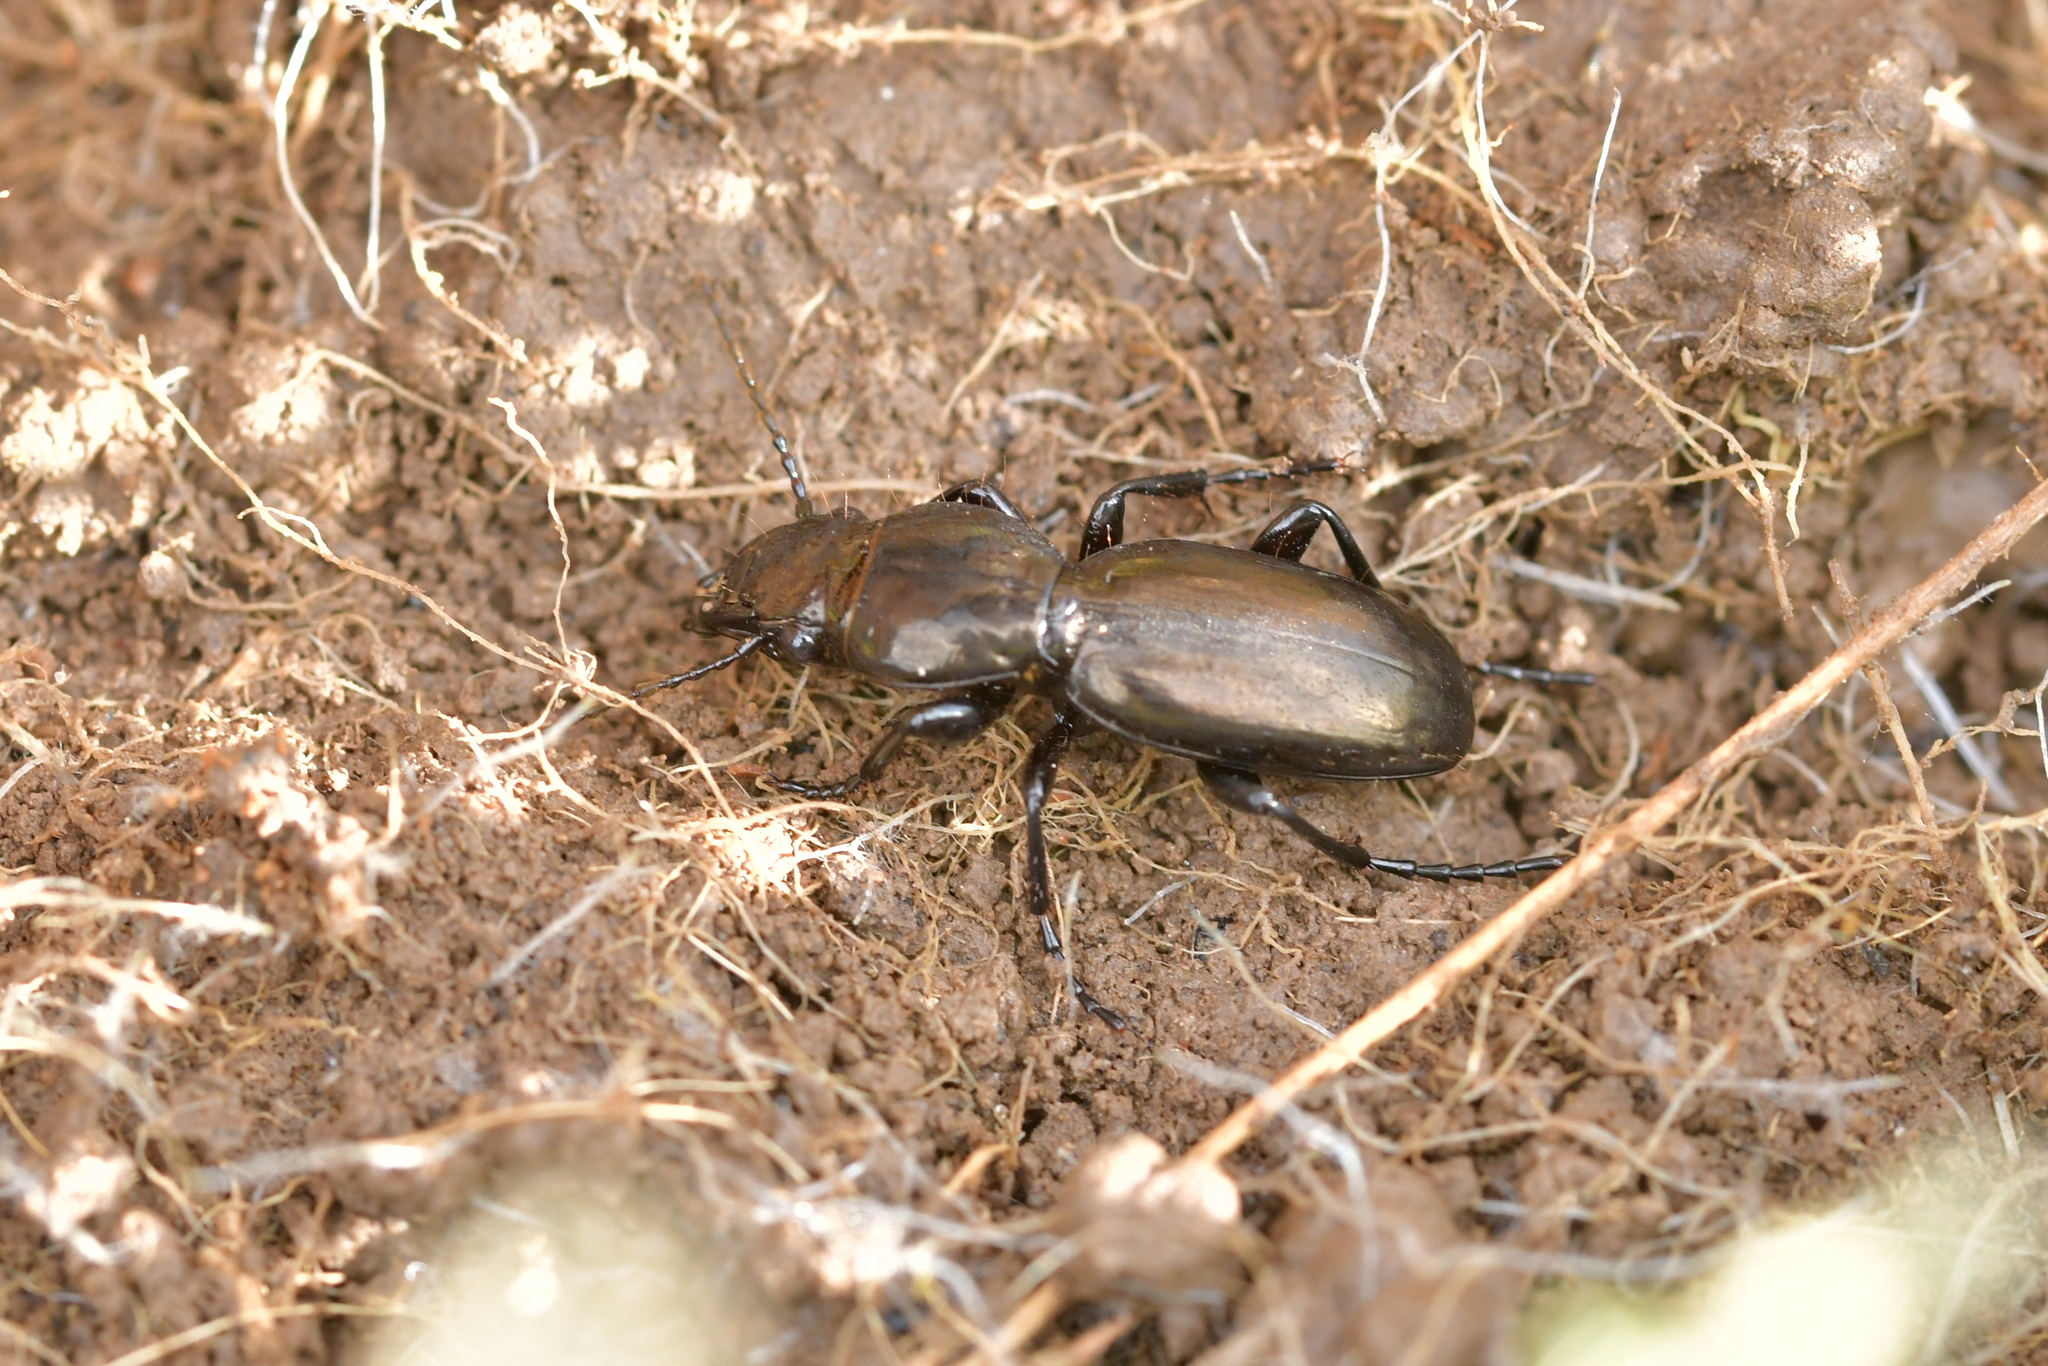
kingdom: Animalia
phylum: Arthropoda
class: Insecta
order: Coleoptera
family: Carabidae
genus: Oregus
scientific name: Oregus aereus
